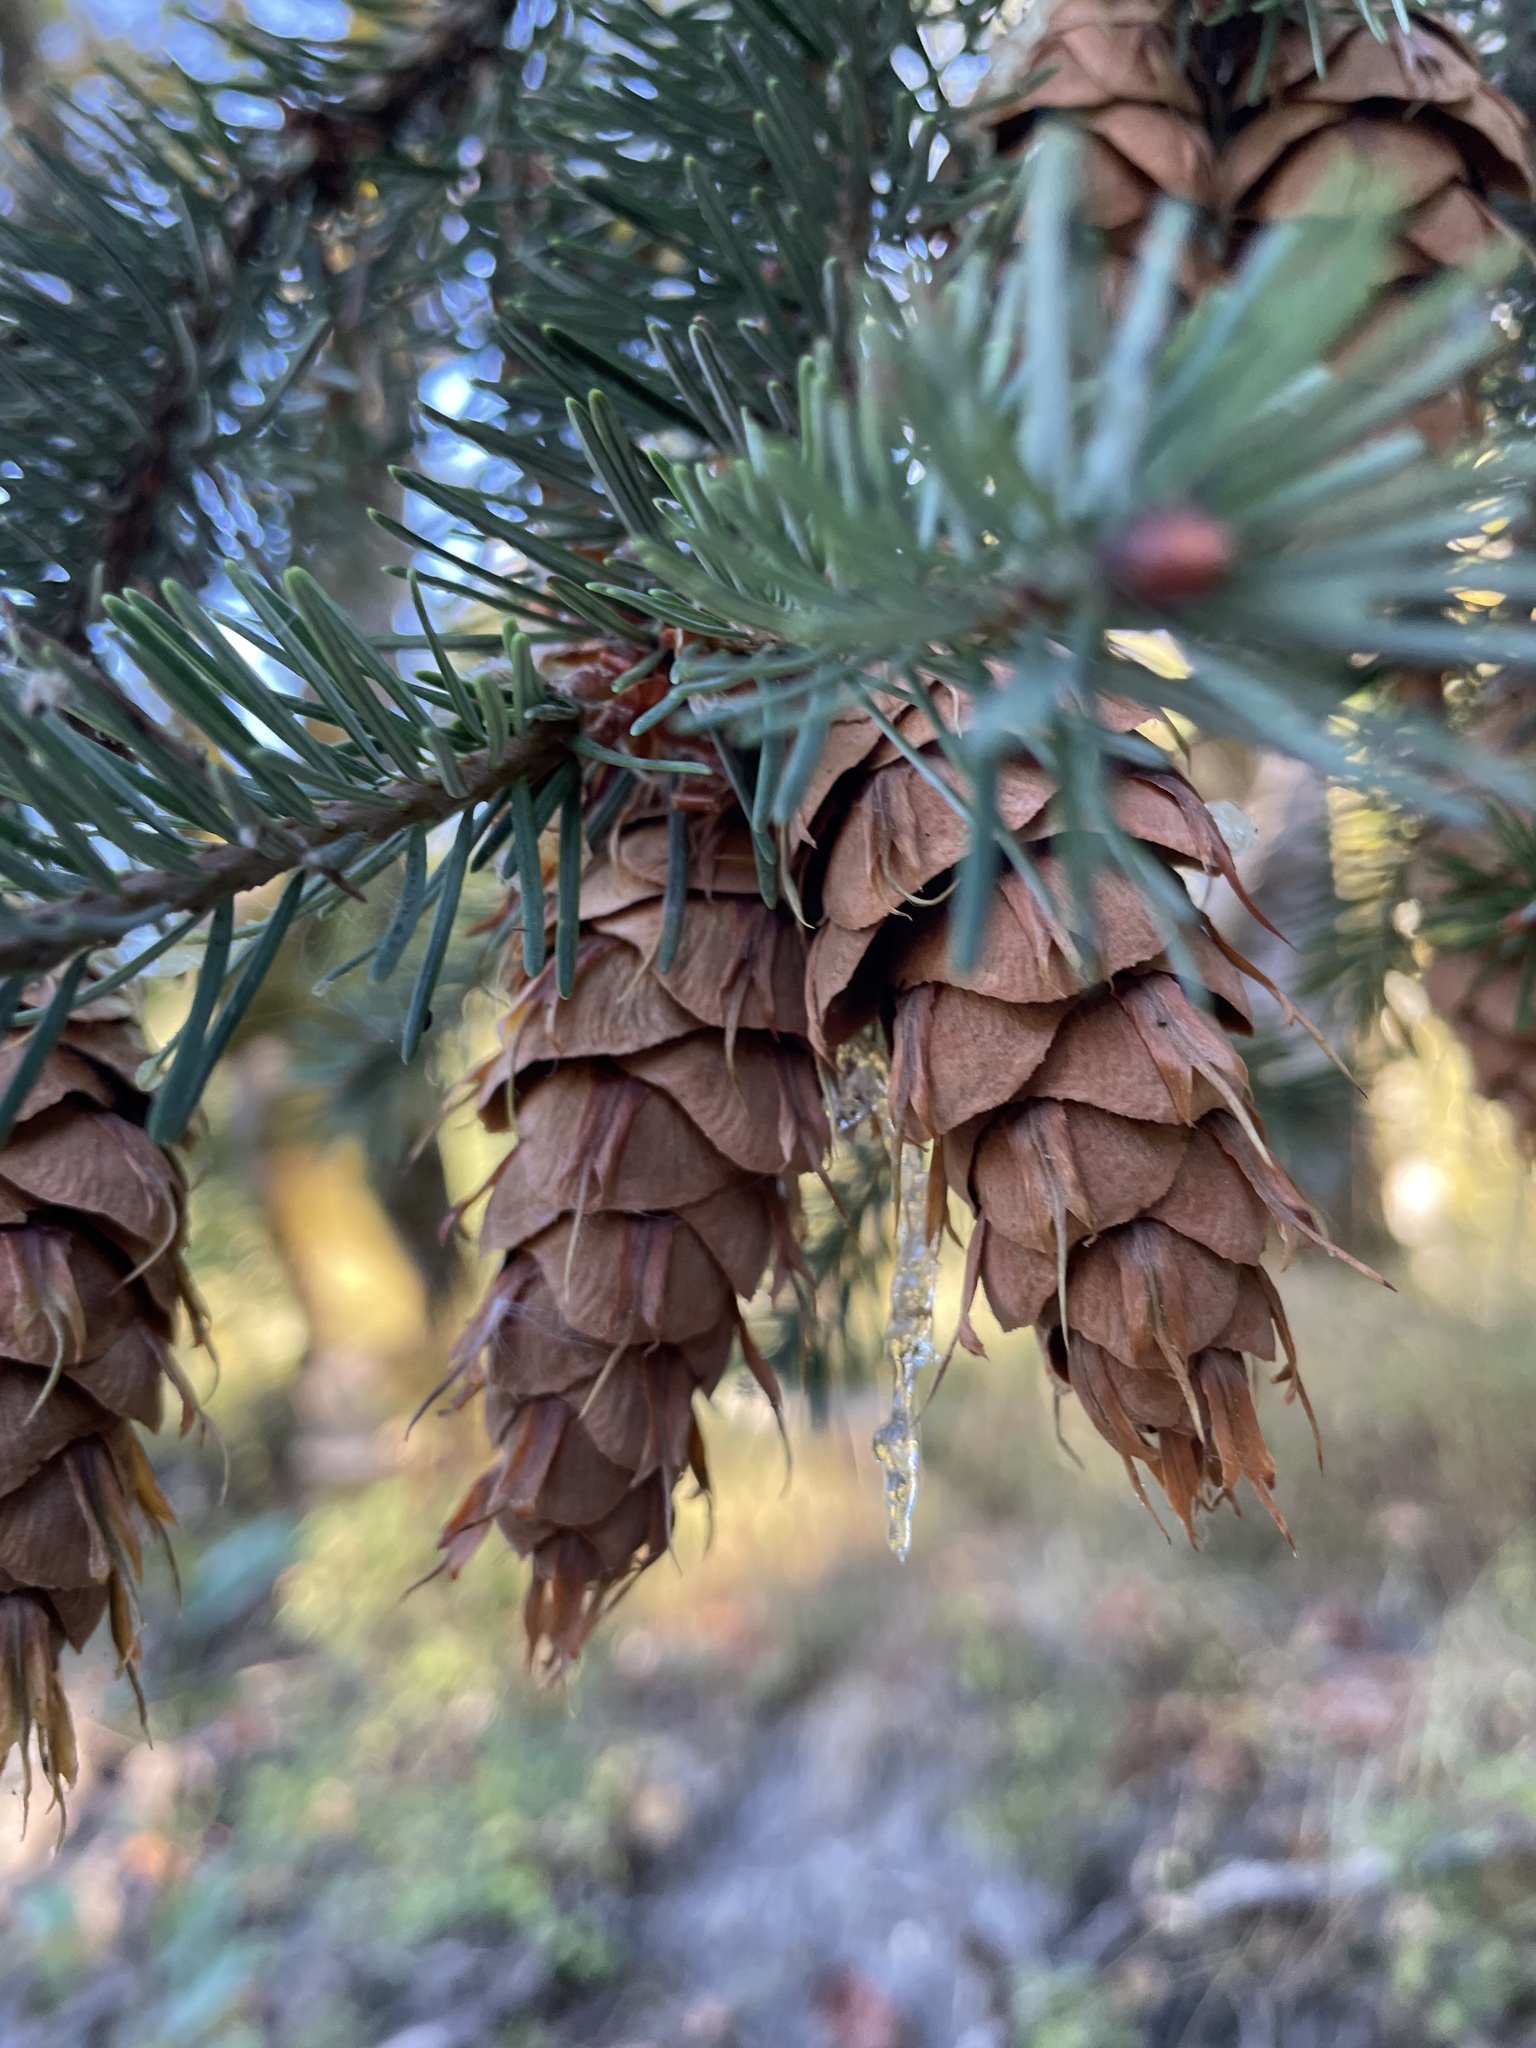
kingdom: Plantae
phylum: Tracheophyta
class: Pinopsida
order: Pinales
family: Pinaceae
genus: Pseudotsuga
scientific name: Pseudotsuga menziesii
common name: Douglas fir
